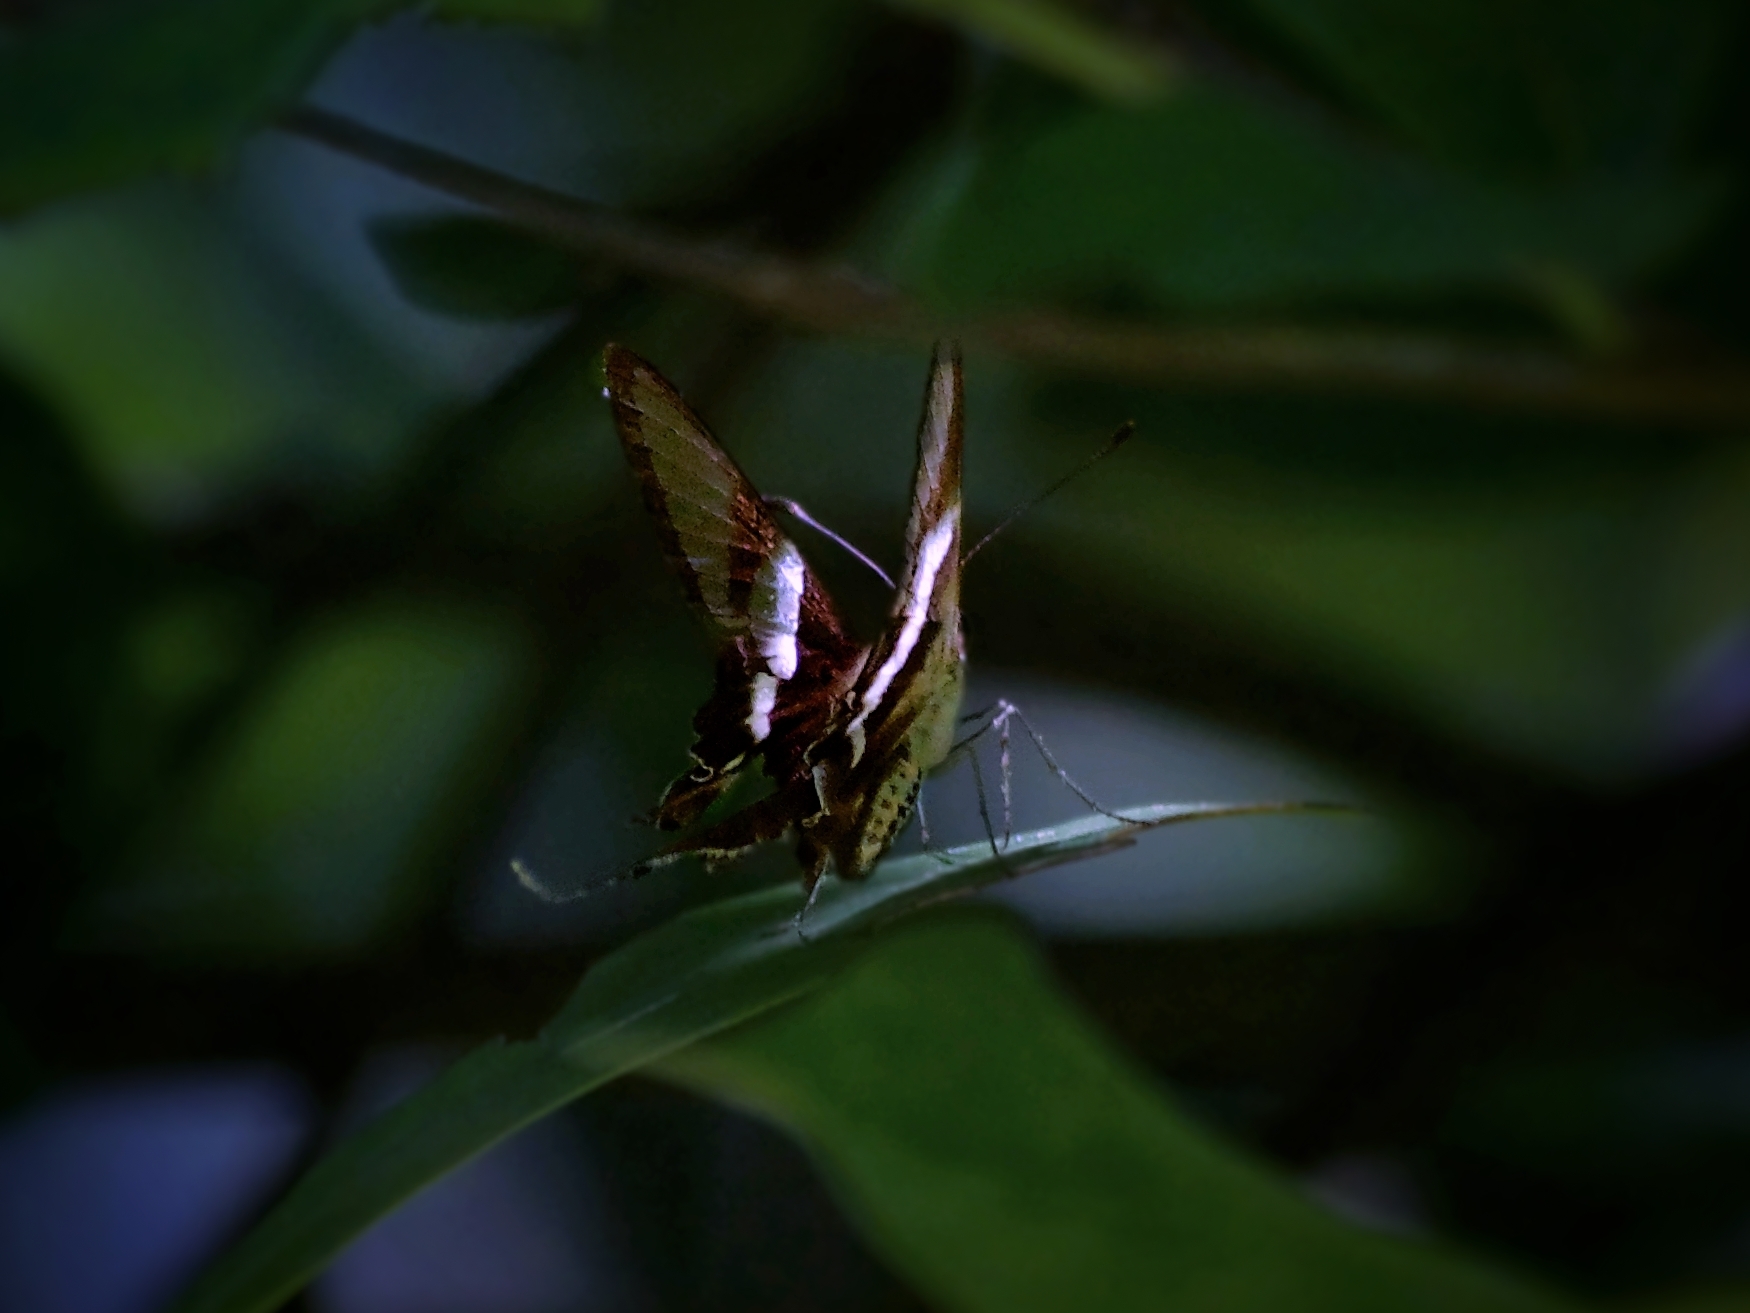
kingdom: Animalia
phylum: Arthropoda
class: Insecta
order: Lepidoptera
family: Papilionidae
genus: Lamproptera
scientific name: Lamproptera curius
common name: White dragontail
